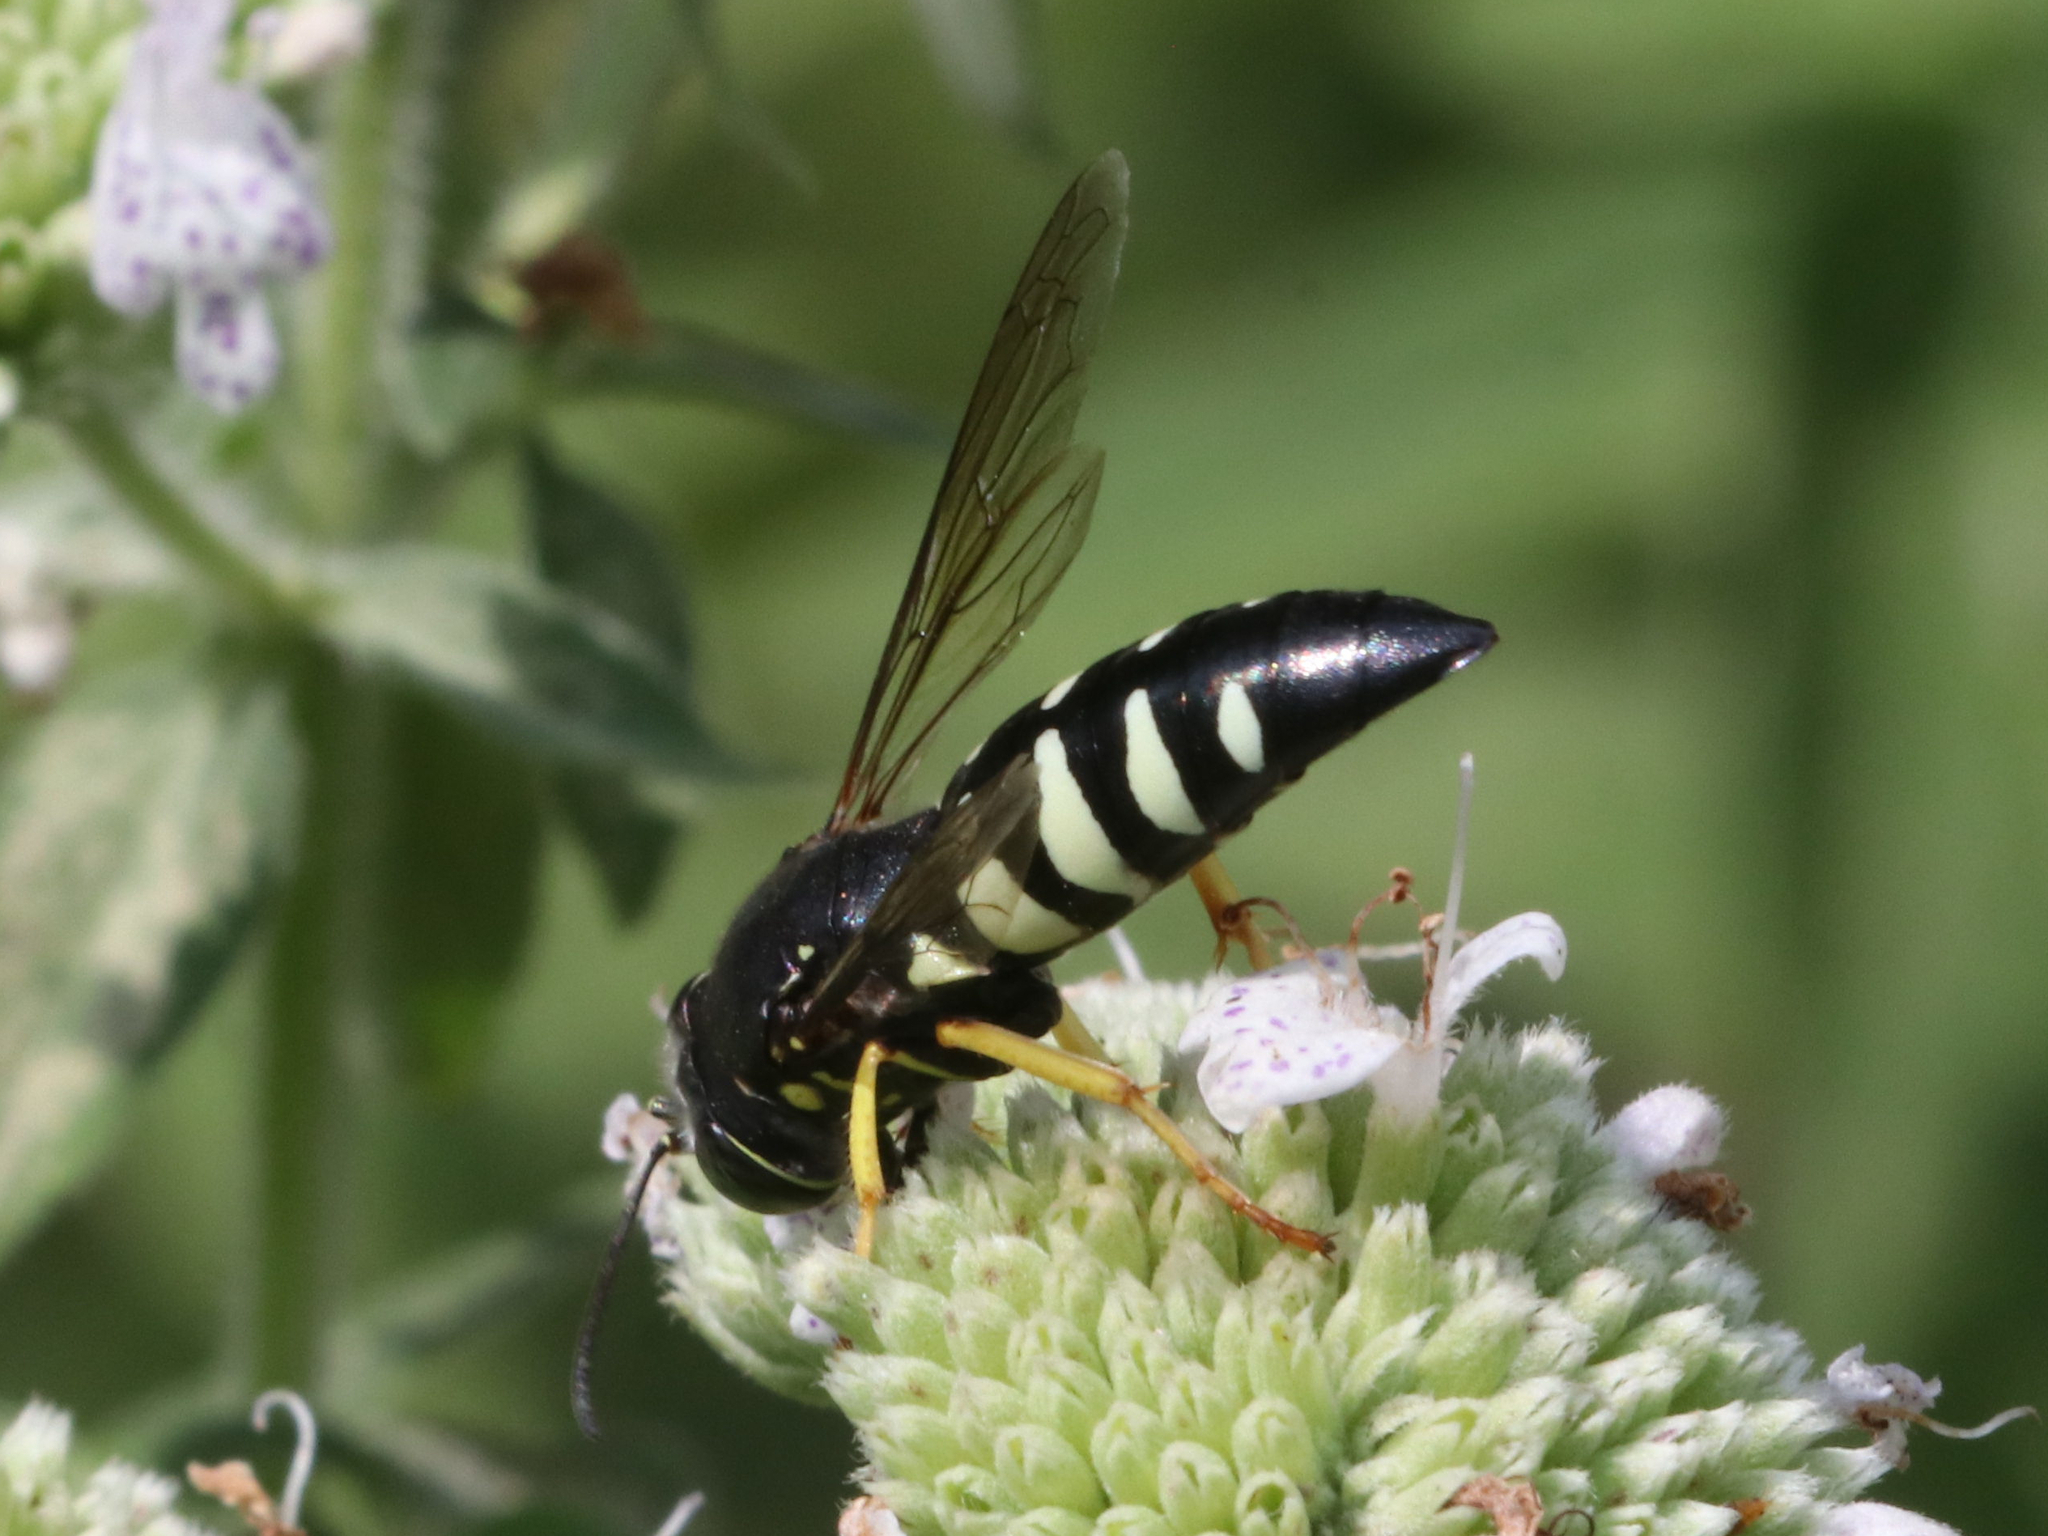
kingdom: Animalia
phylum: Arthropoda
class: Insecta
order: Hymenoptera
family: Crabronidae
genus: Bicyrtes
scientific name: Bicyrtes quadrifasciatus
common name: Four-banded stink bug hunter wasp
